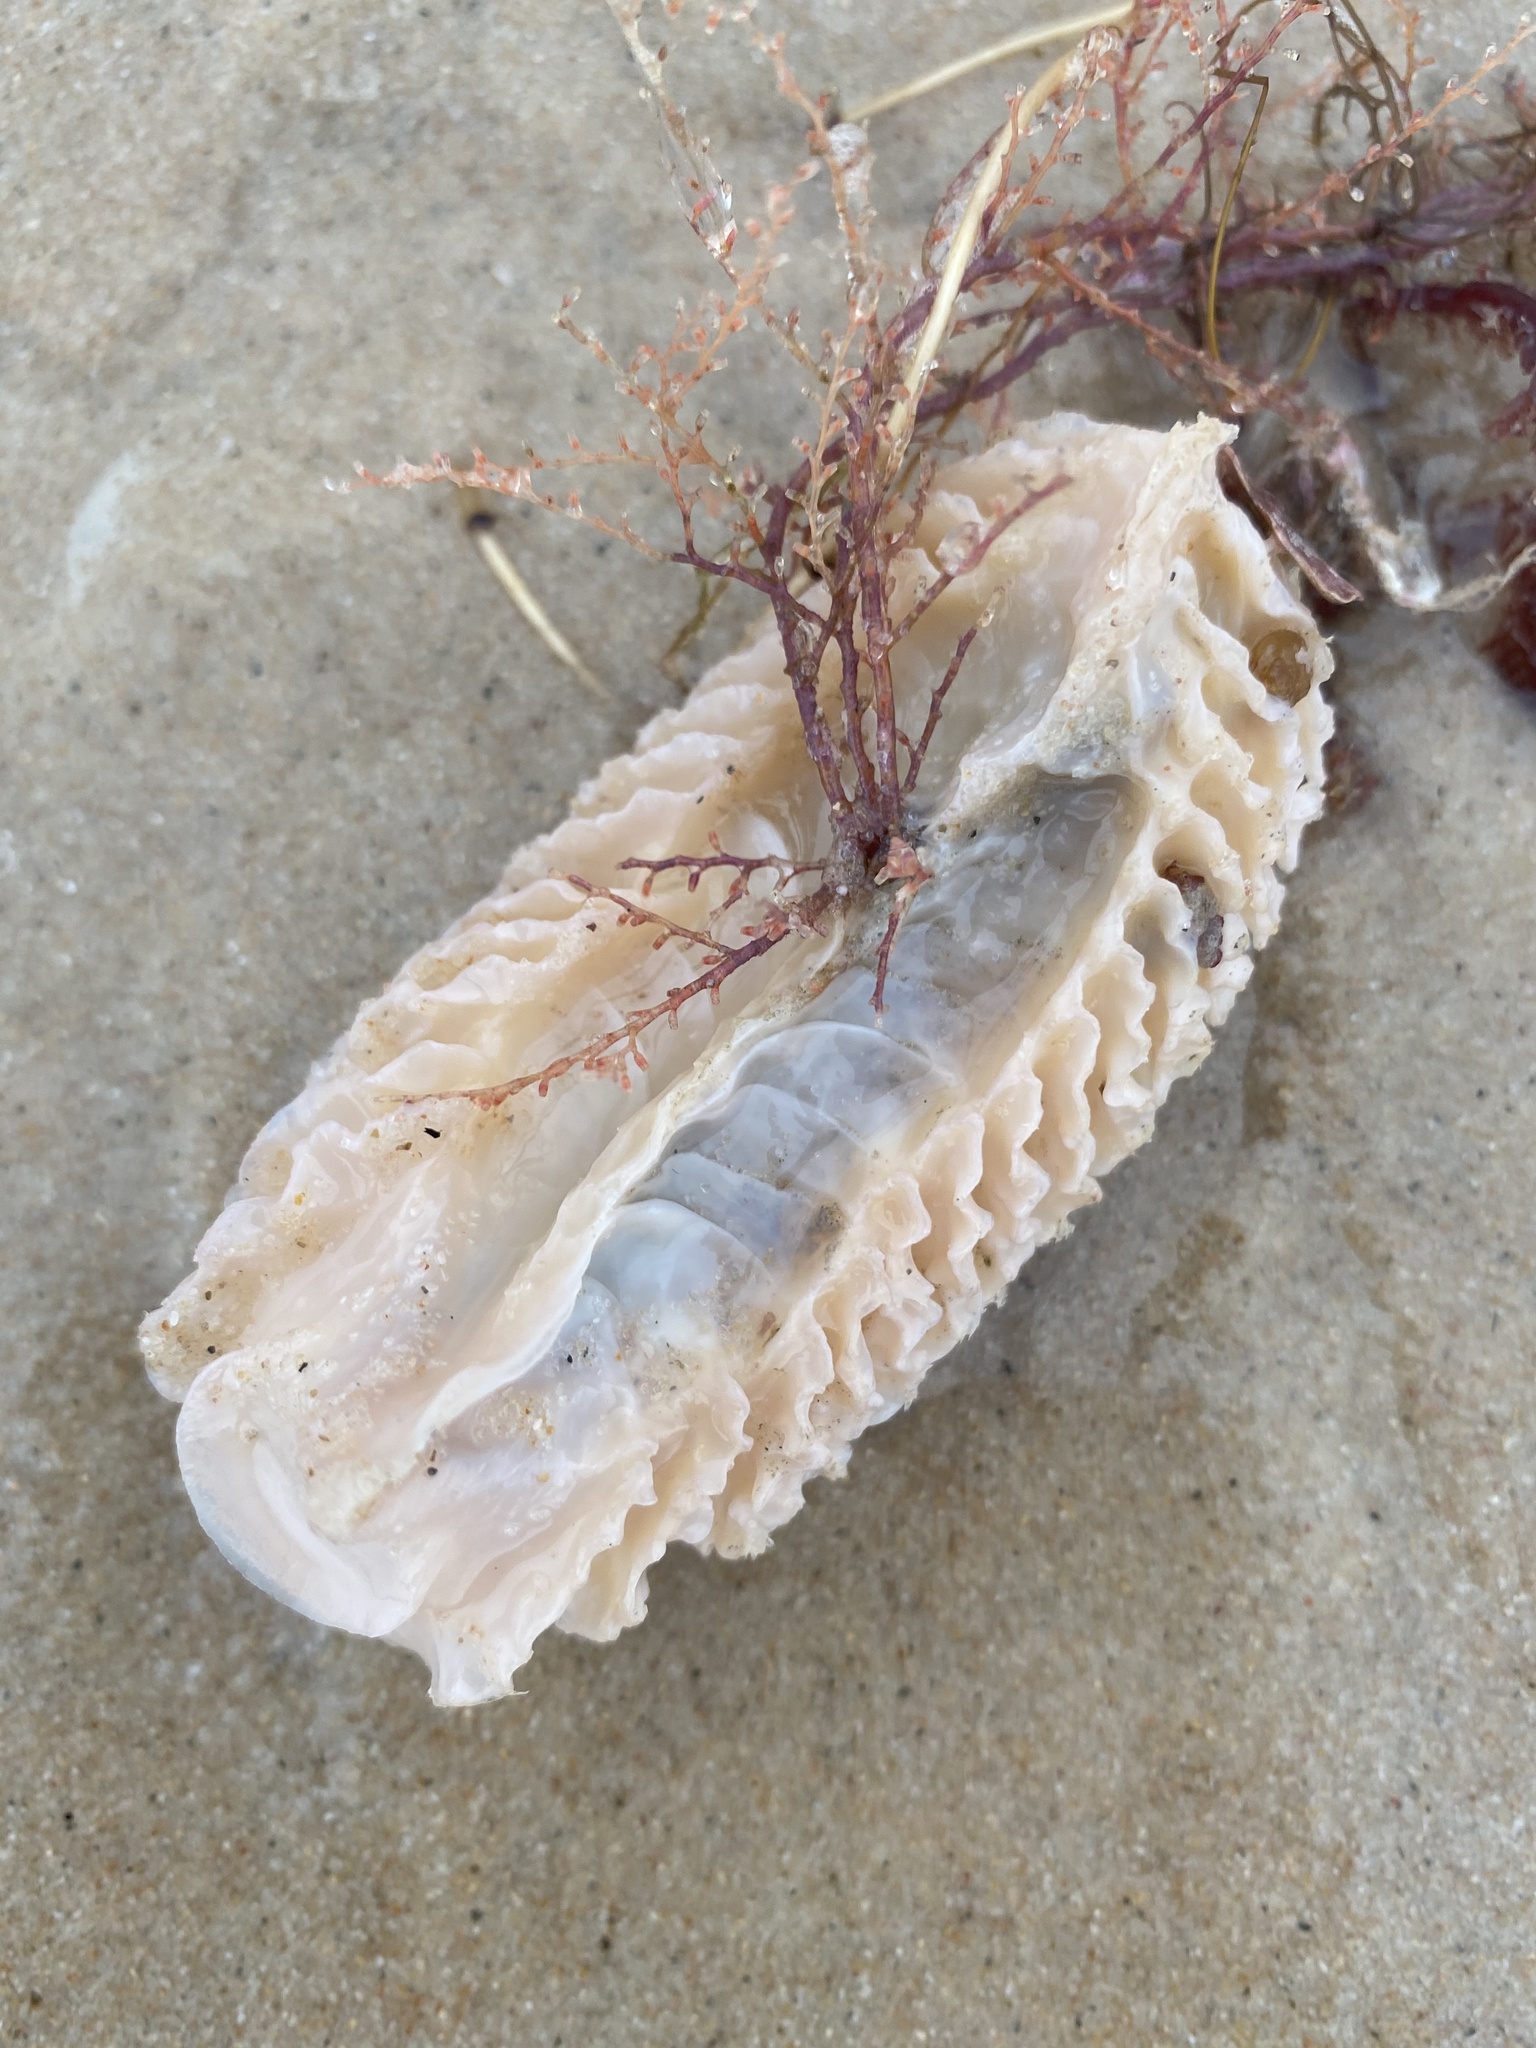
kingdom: Animalia
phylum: Mollusca
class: Gastropoda
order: Neogastropoda
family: Turbinellidae
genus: Turbinella
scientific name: Turbinella laevigata
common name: Brazilian chank
